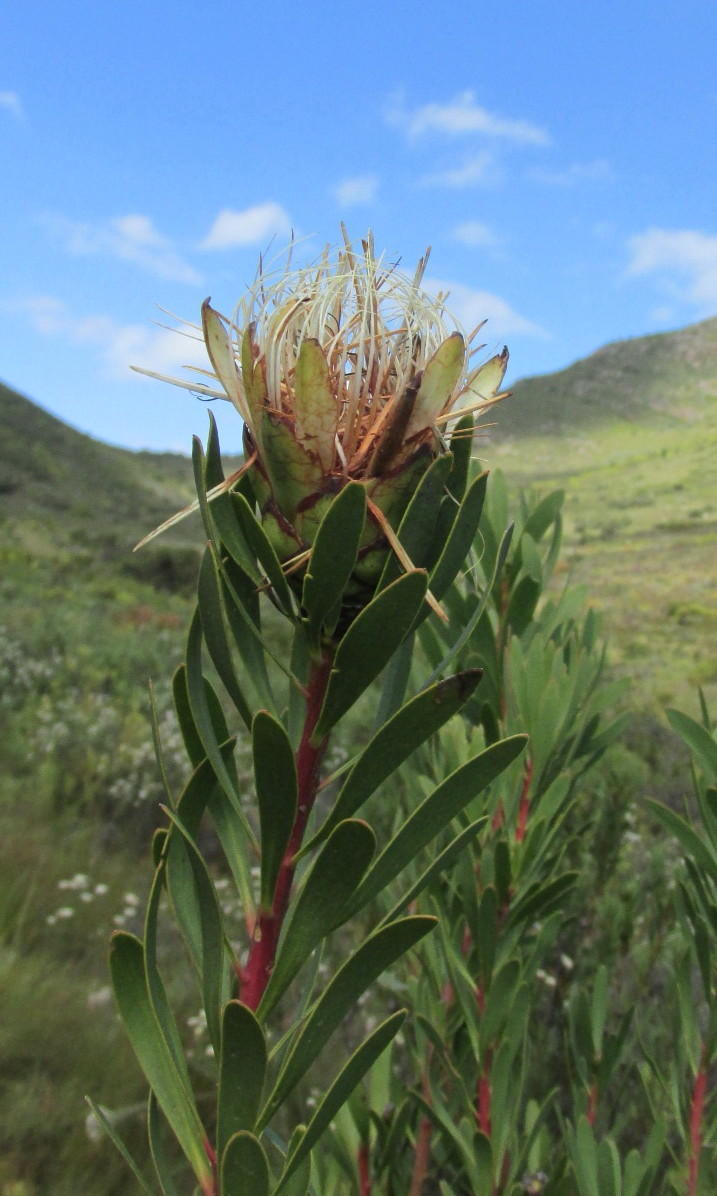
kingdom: Plantae
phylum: Tracheophyta
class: Magnoliopsida
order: Proteales
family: Proteaceae
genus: Protea
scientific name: Protea lanceolata
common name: Lance-leaved protea
